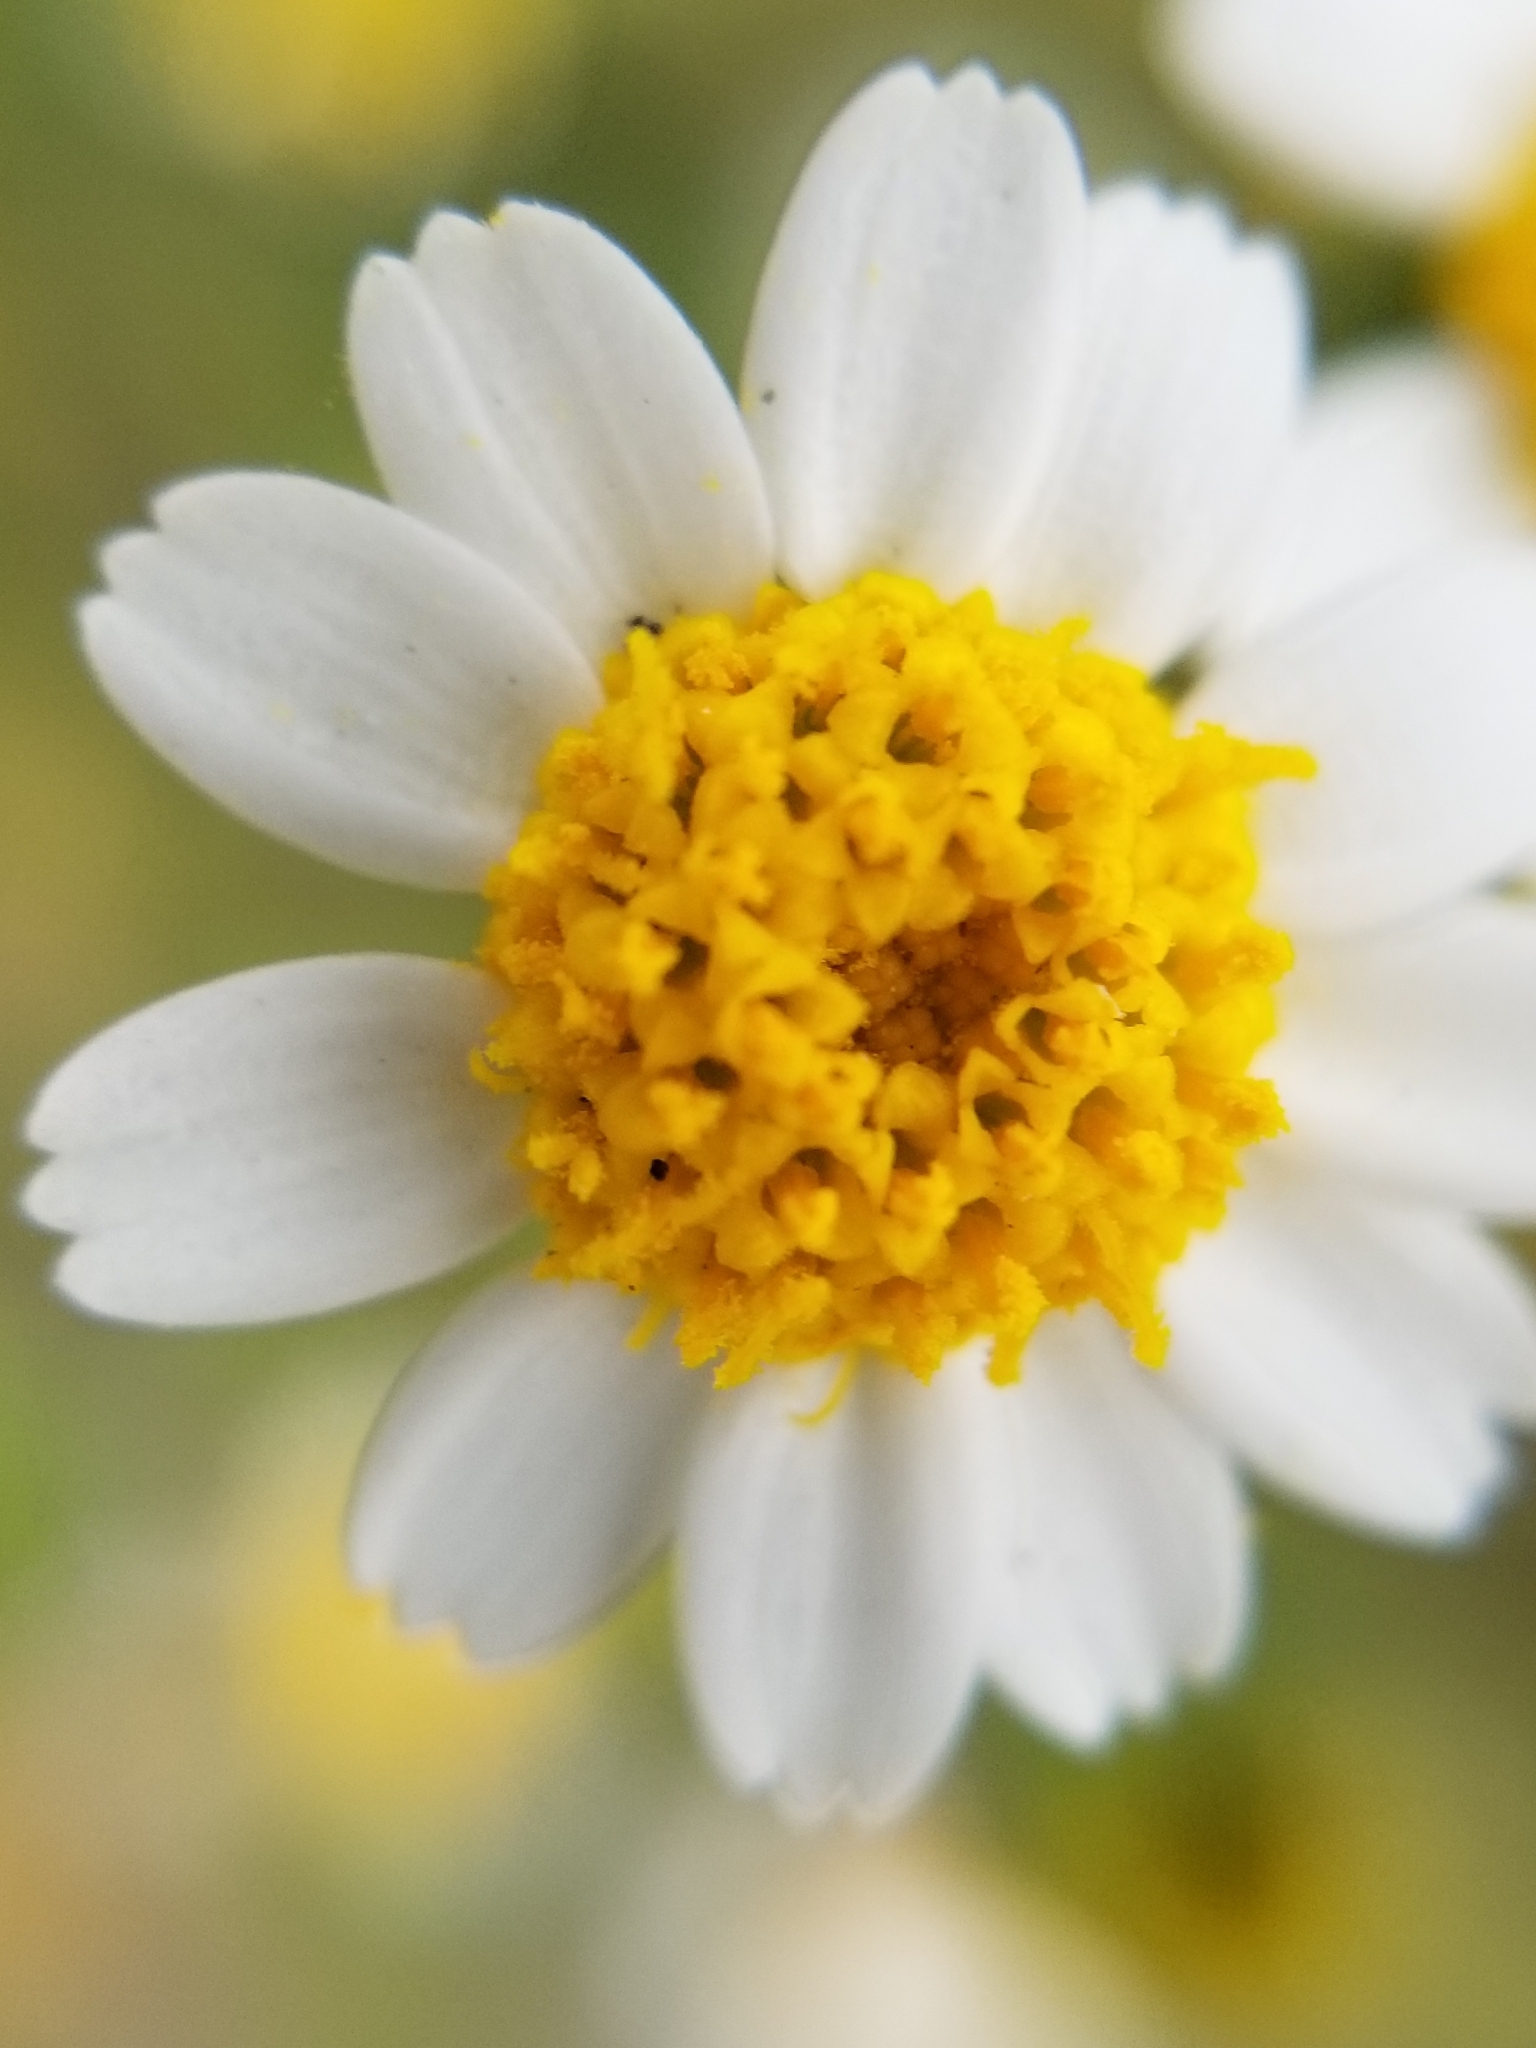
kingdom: Plantae
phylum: Tracheophyta
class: Magnoliopsida
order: Asterales
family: Asteraceae
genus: Laphamia
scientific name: Laphamia emoryi
